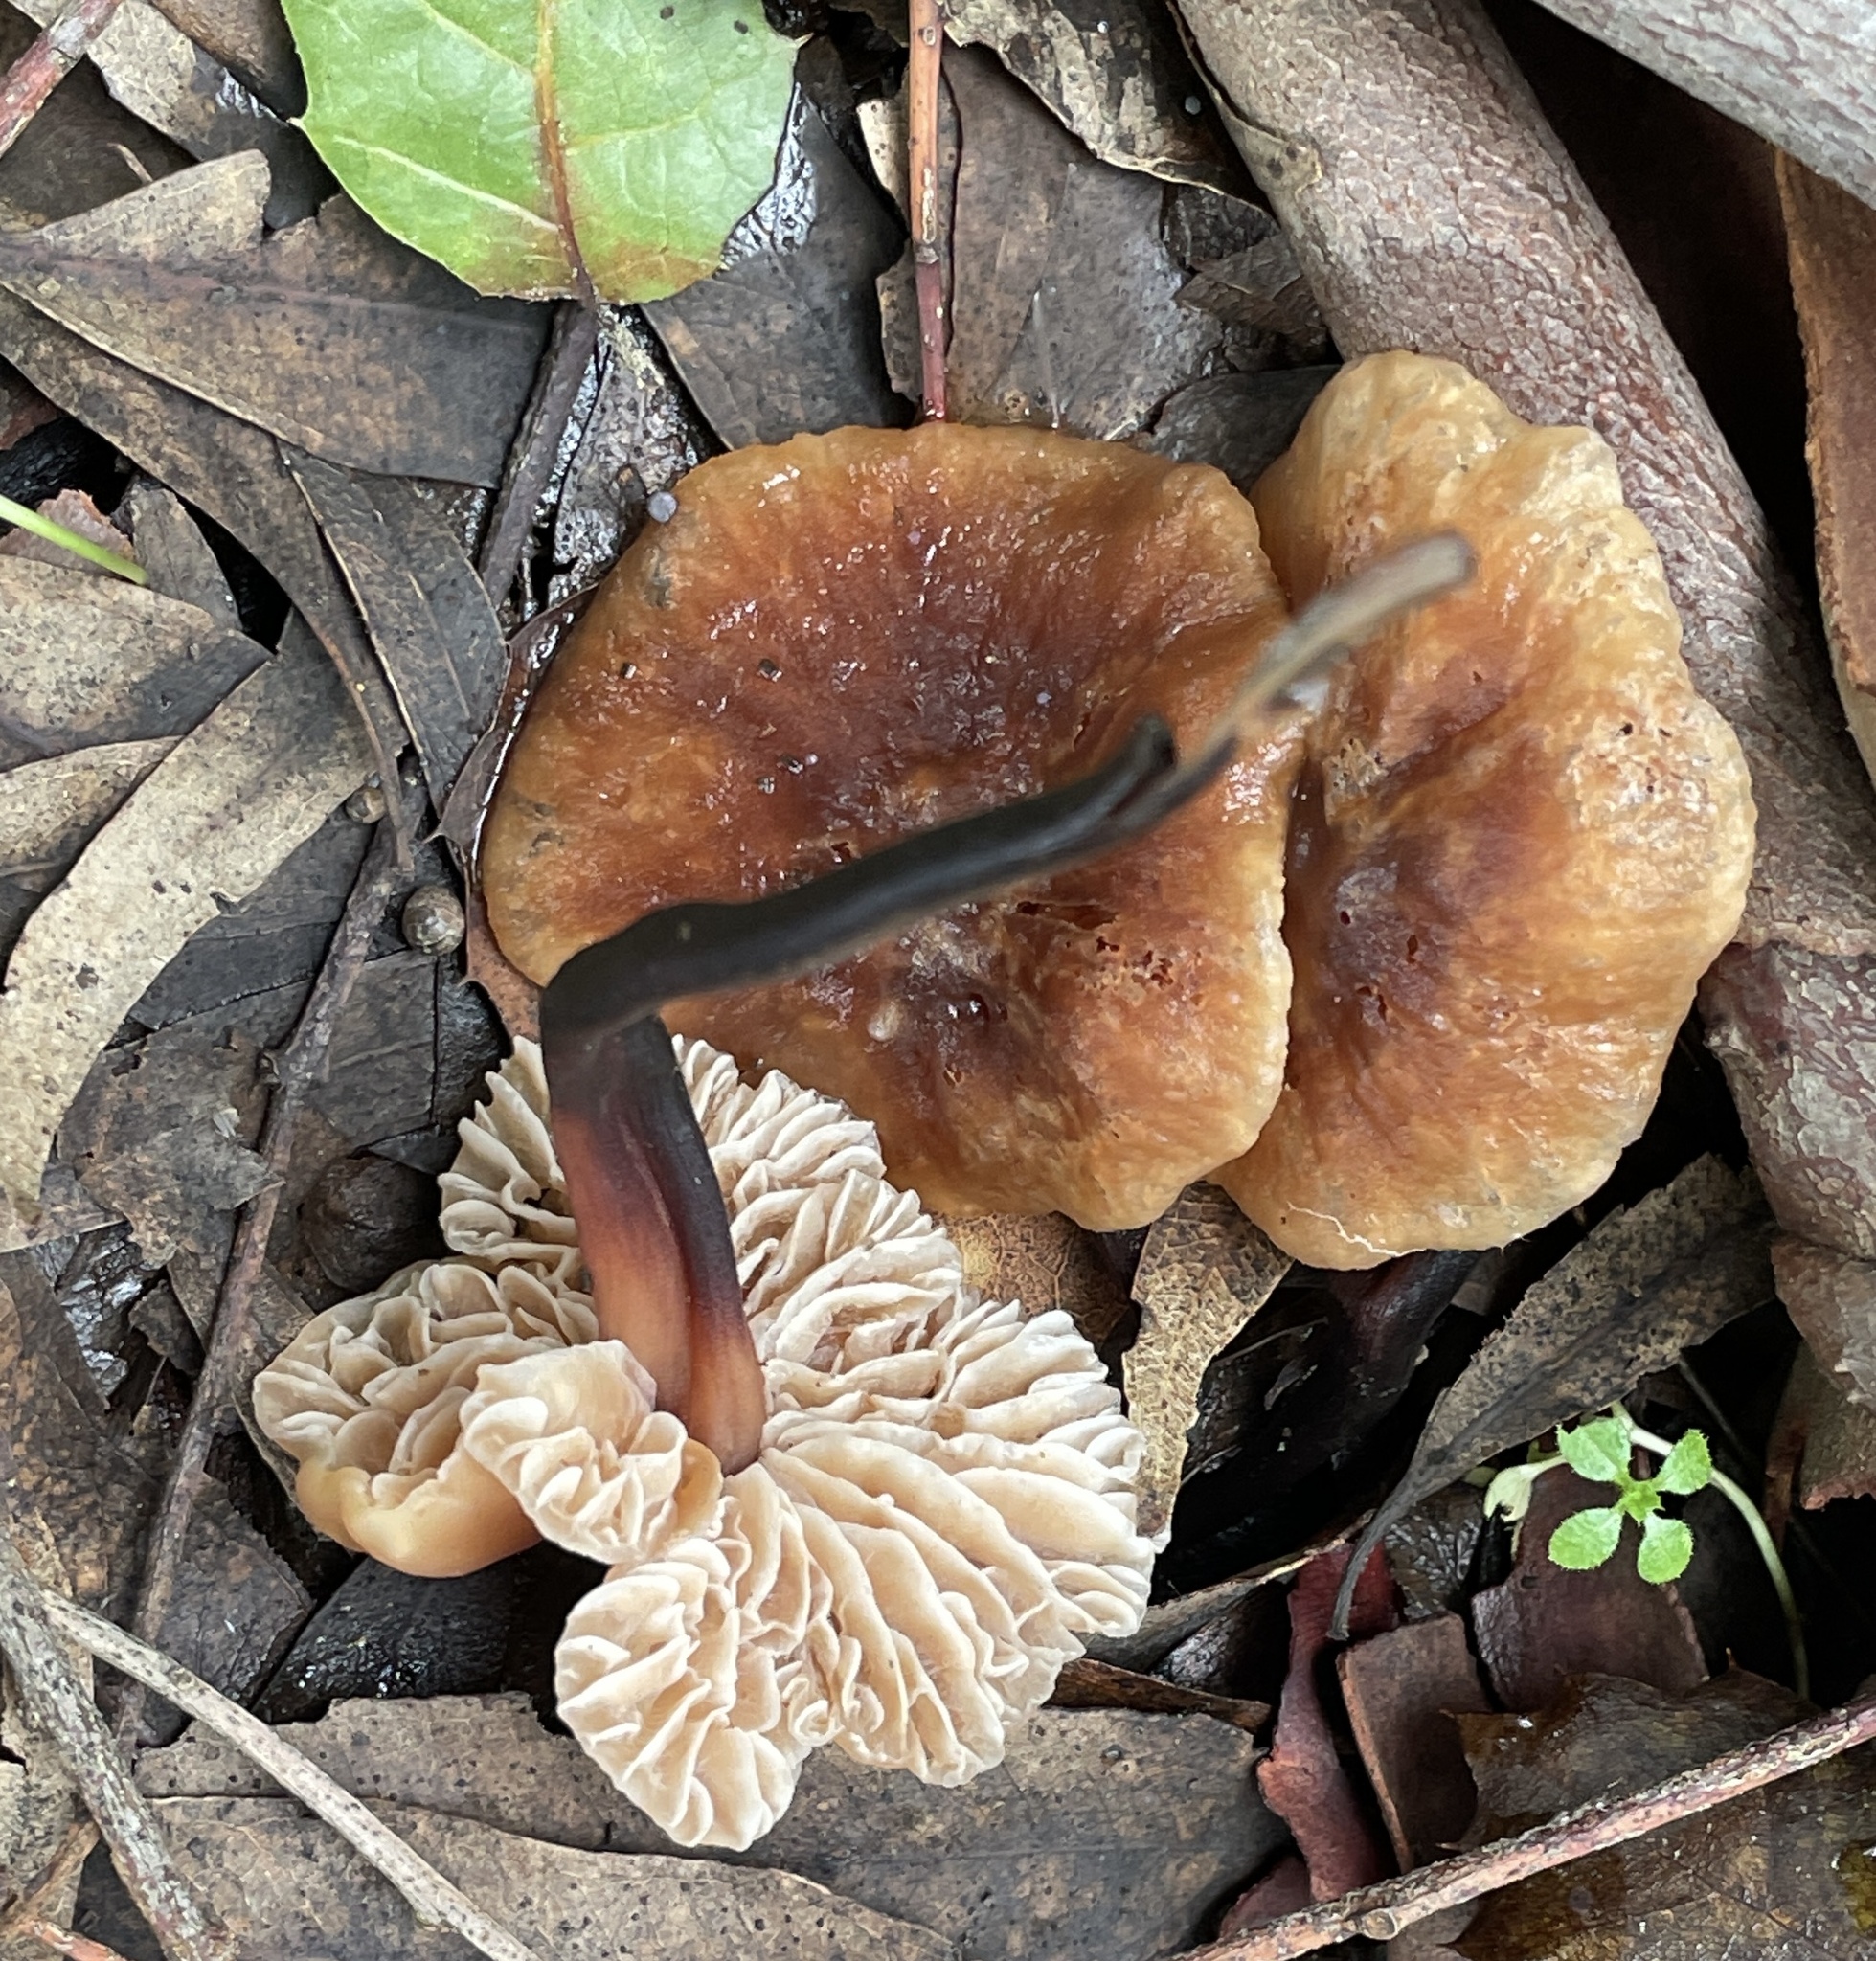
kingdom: Fungi
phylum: Basidiomycota
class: Agaricomycetes
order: Agaricales
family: Omphalotaceae
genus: Gymnopus
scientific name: Gymnopus brassicolens
